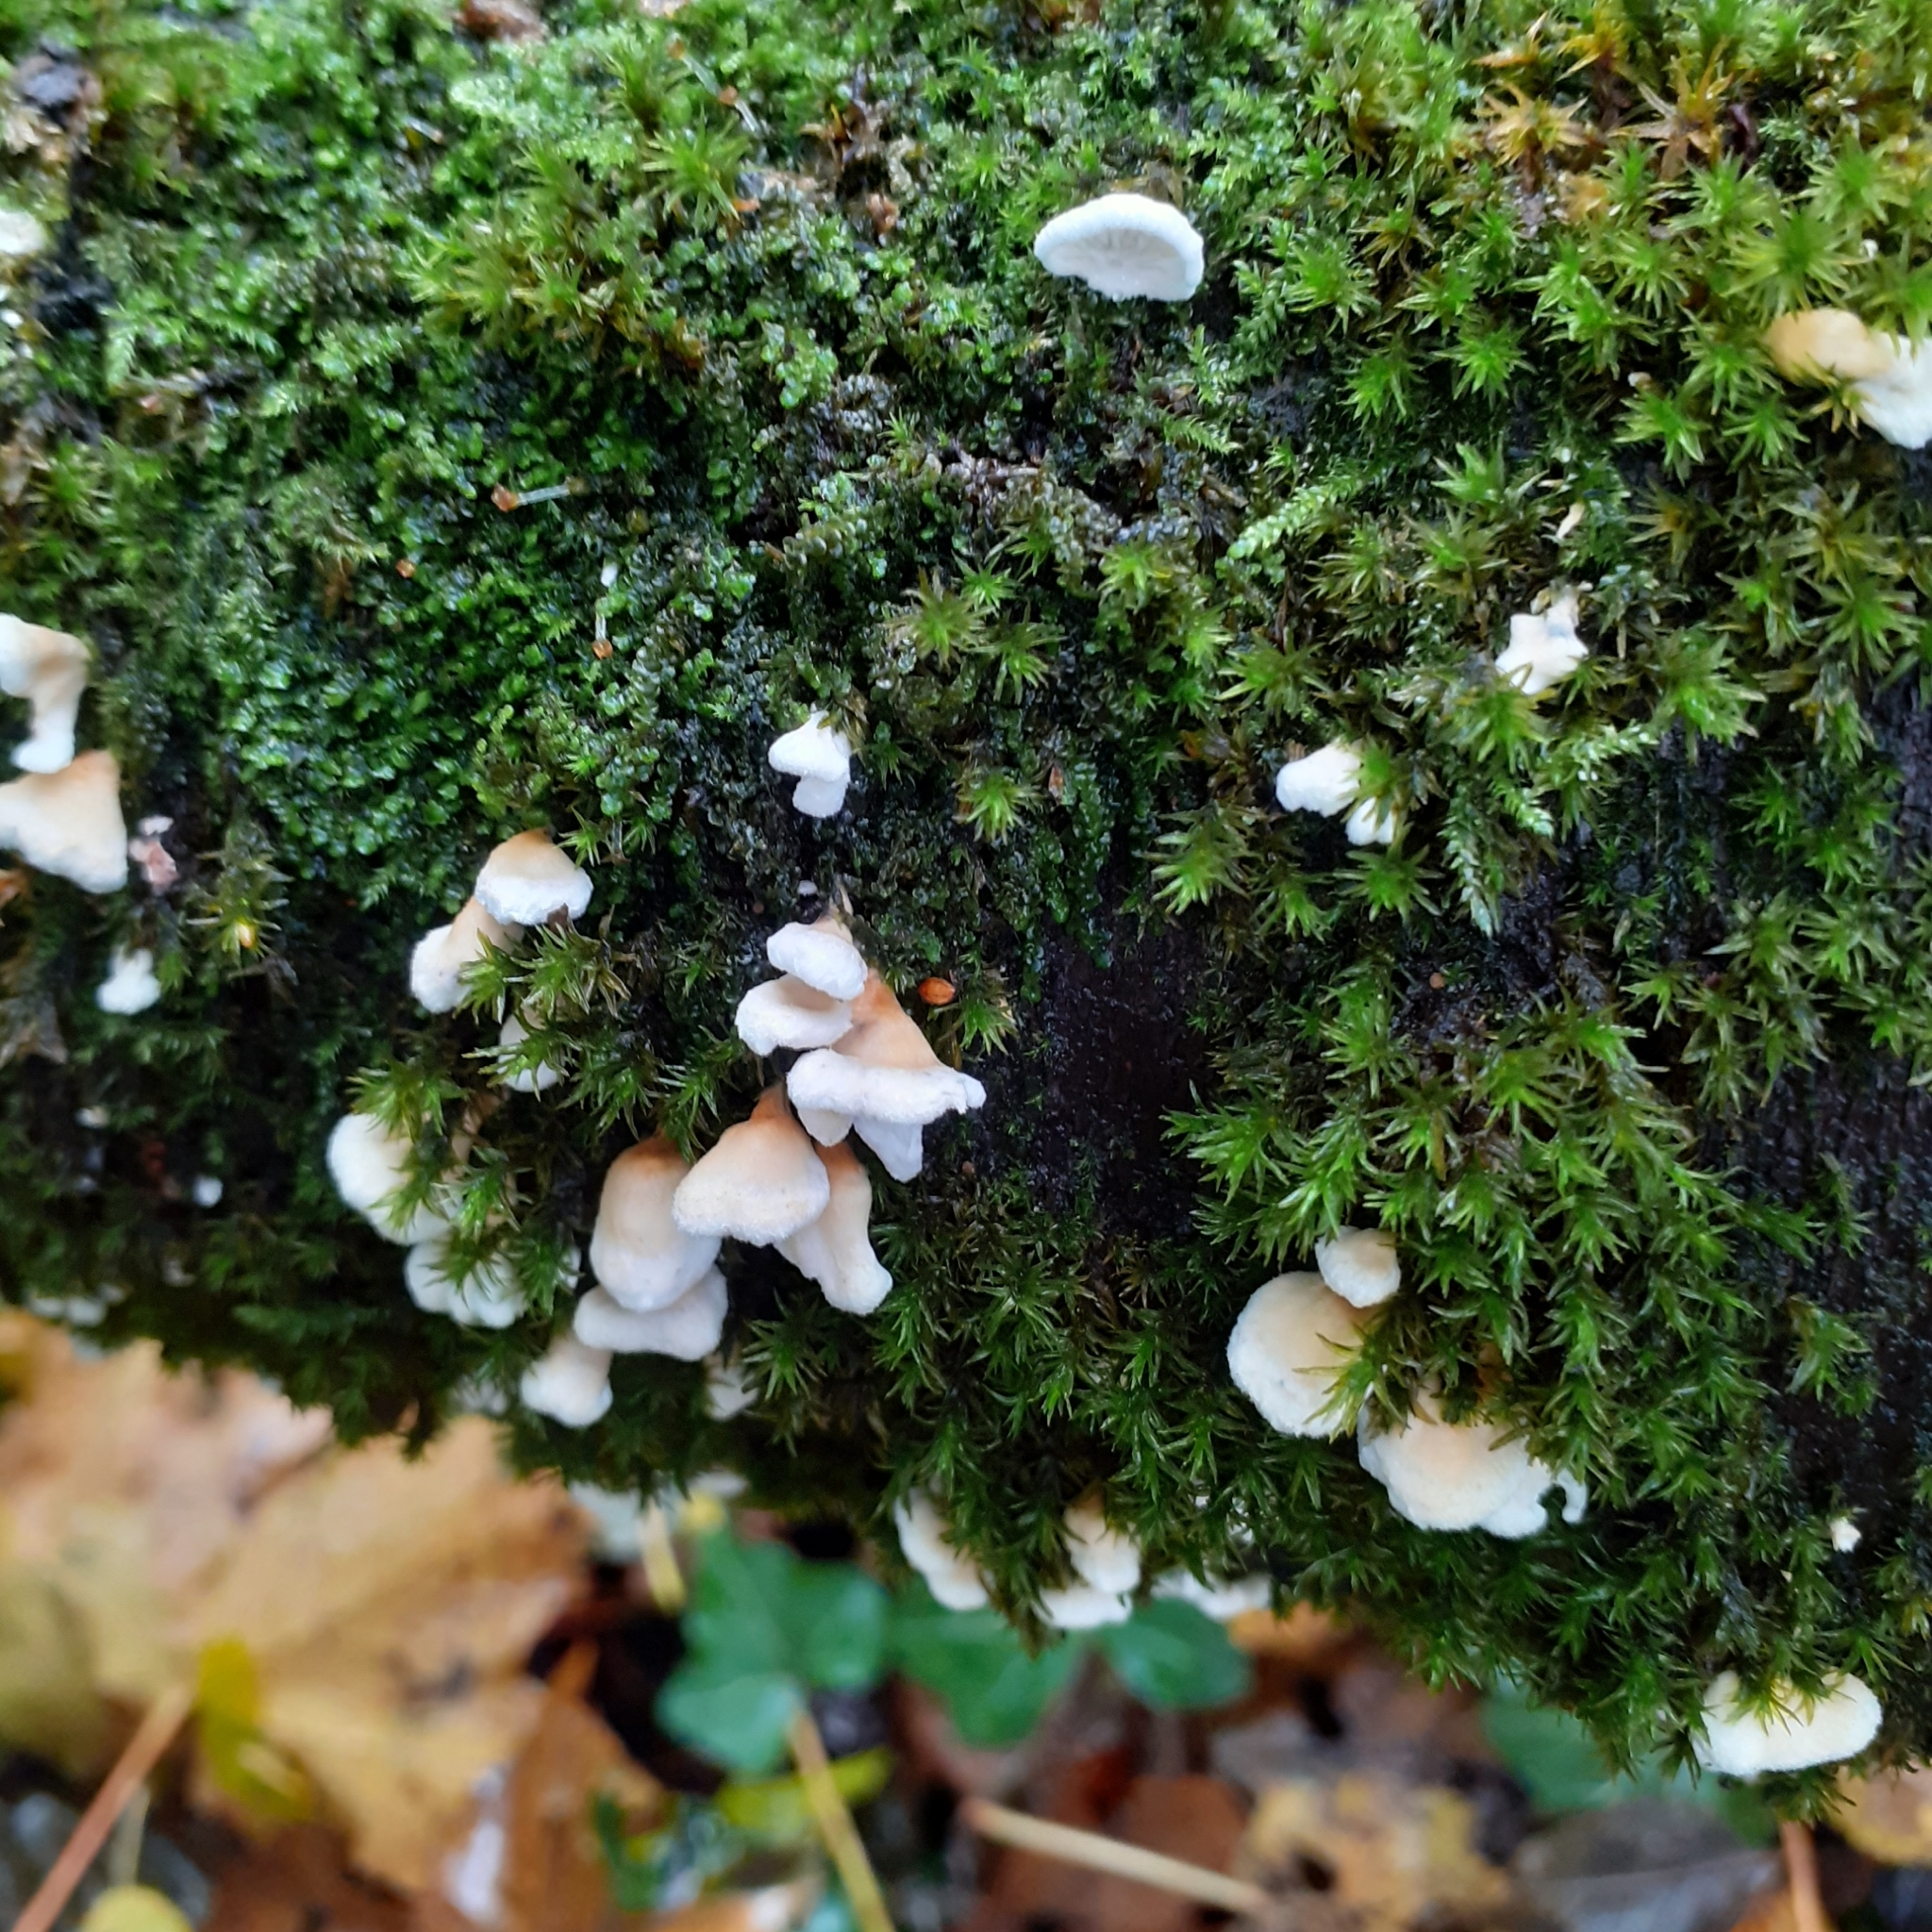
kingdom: Fungi
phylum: Basidiomycota
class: Agaricomycetes
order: Amylocorticiales
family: Amylocorticiaceae
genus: Plicaturopsis
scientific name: Plicaturopsis crispa
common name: Crimped gill
